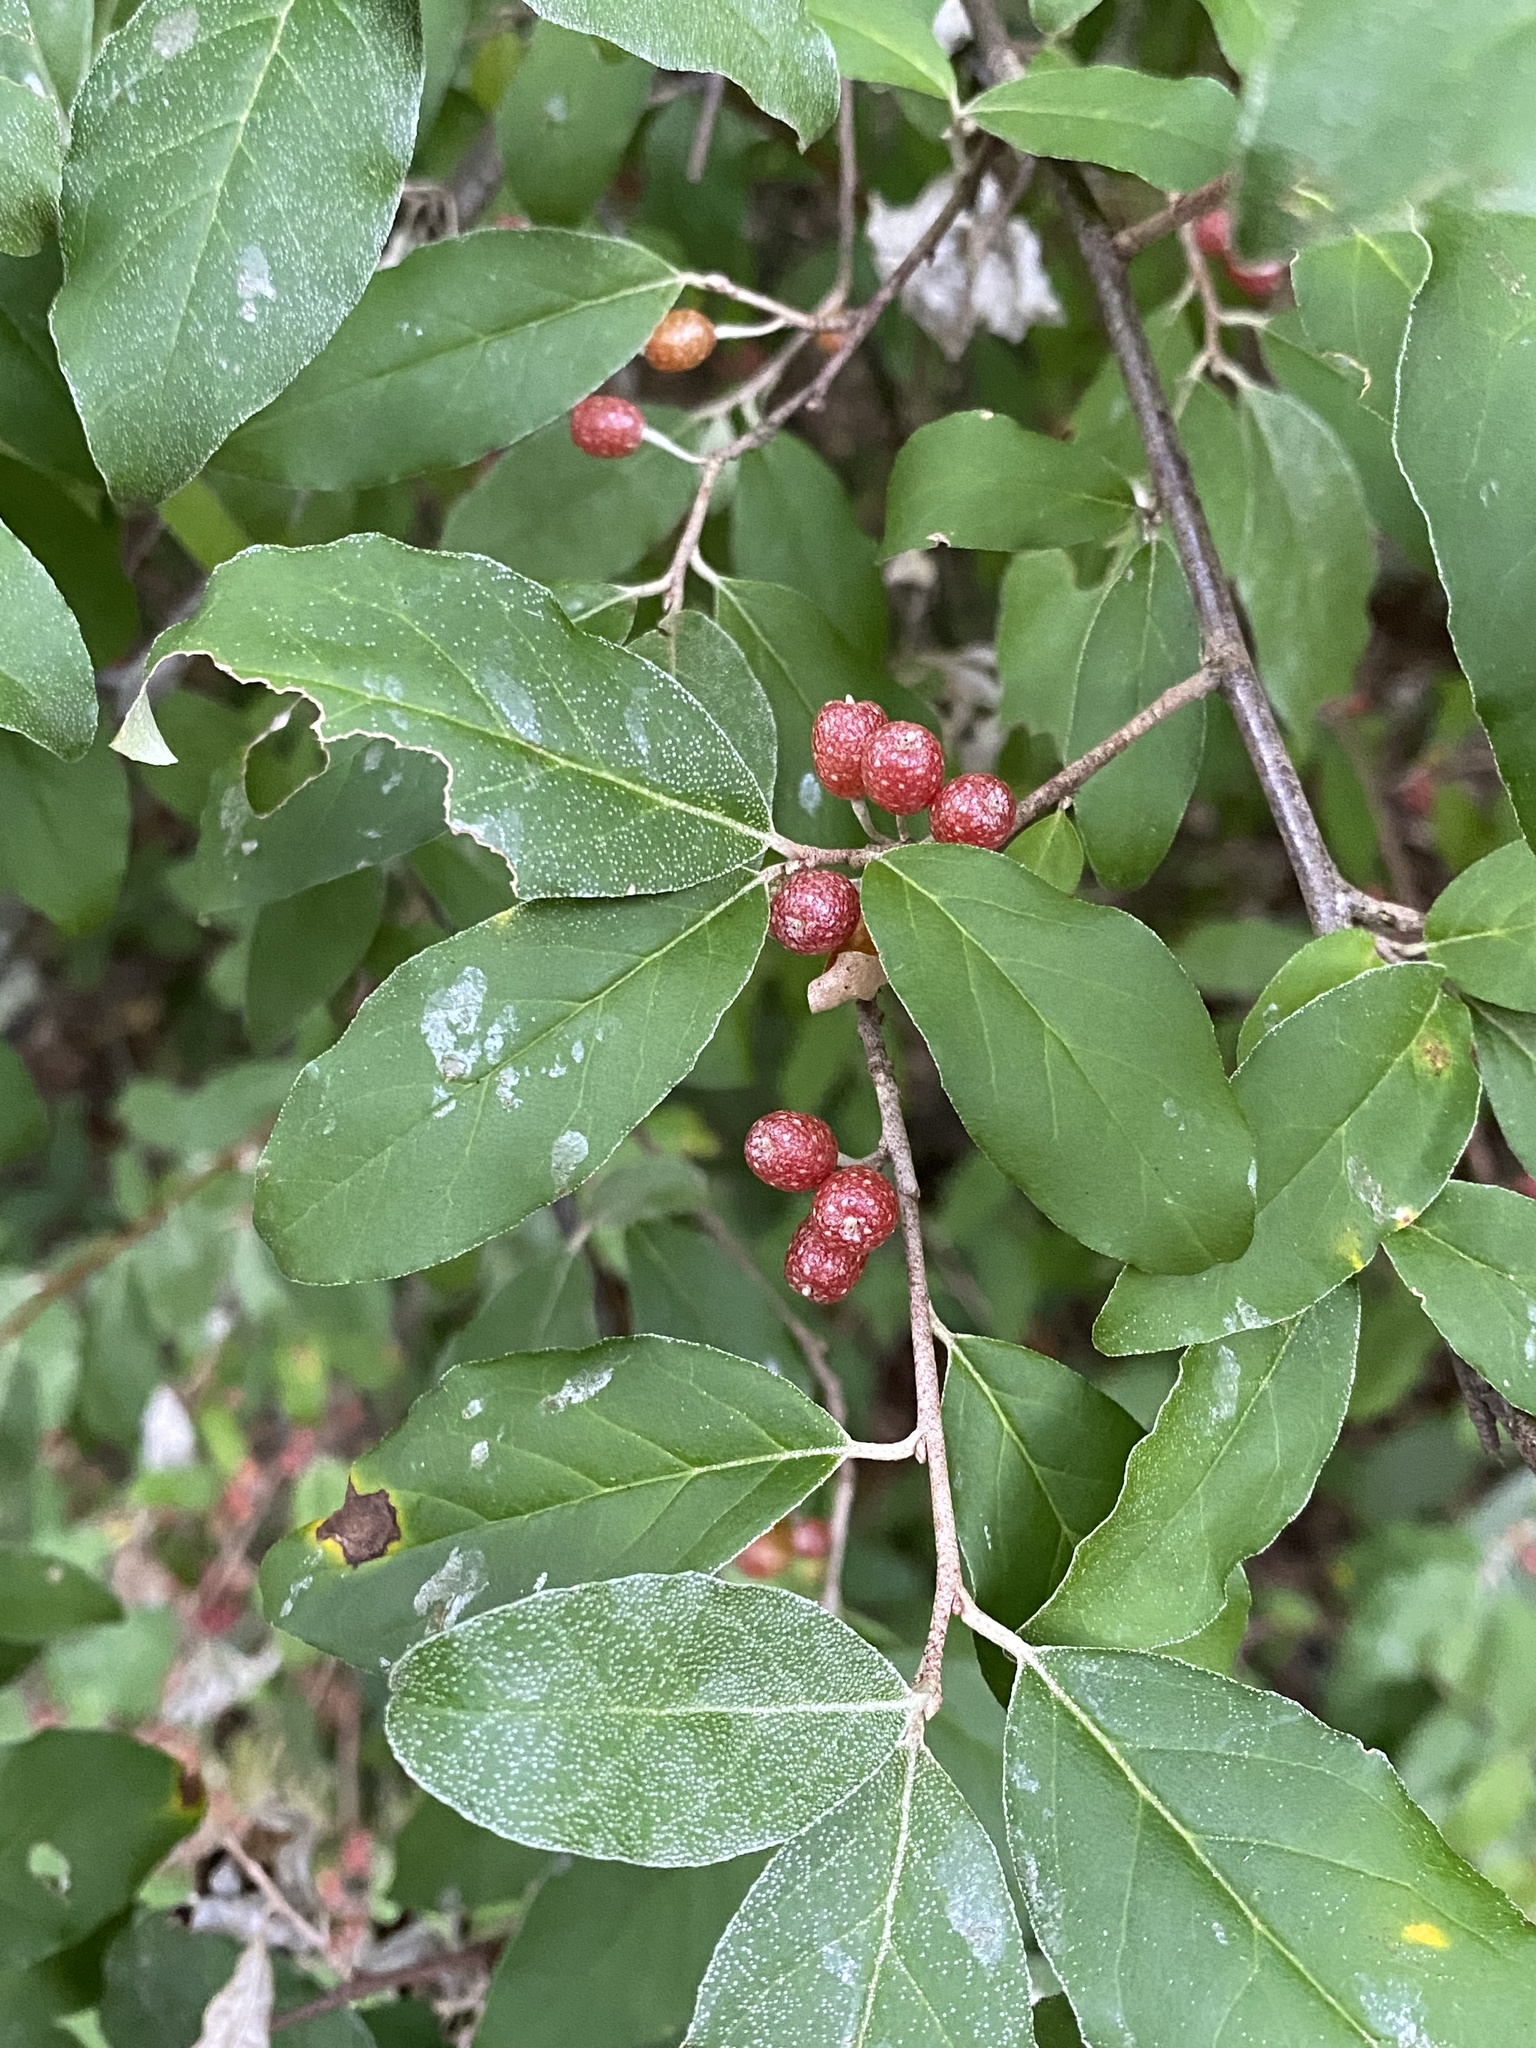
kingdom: Plantae
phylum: Tracheophyta
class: Magnoliopsida
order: Rosales
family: Elaeagnaceae
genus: Elaeagnus
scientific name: Elaeagnus umbellata
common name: Autumn olive
